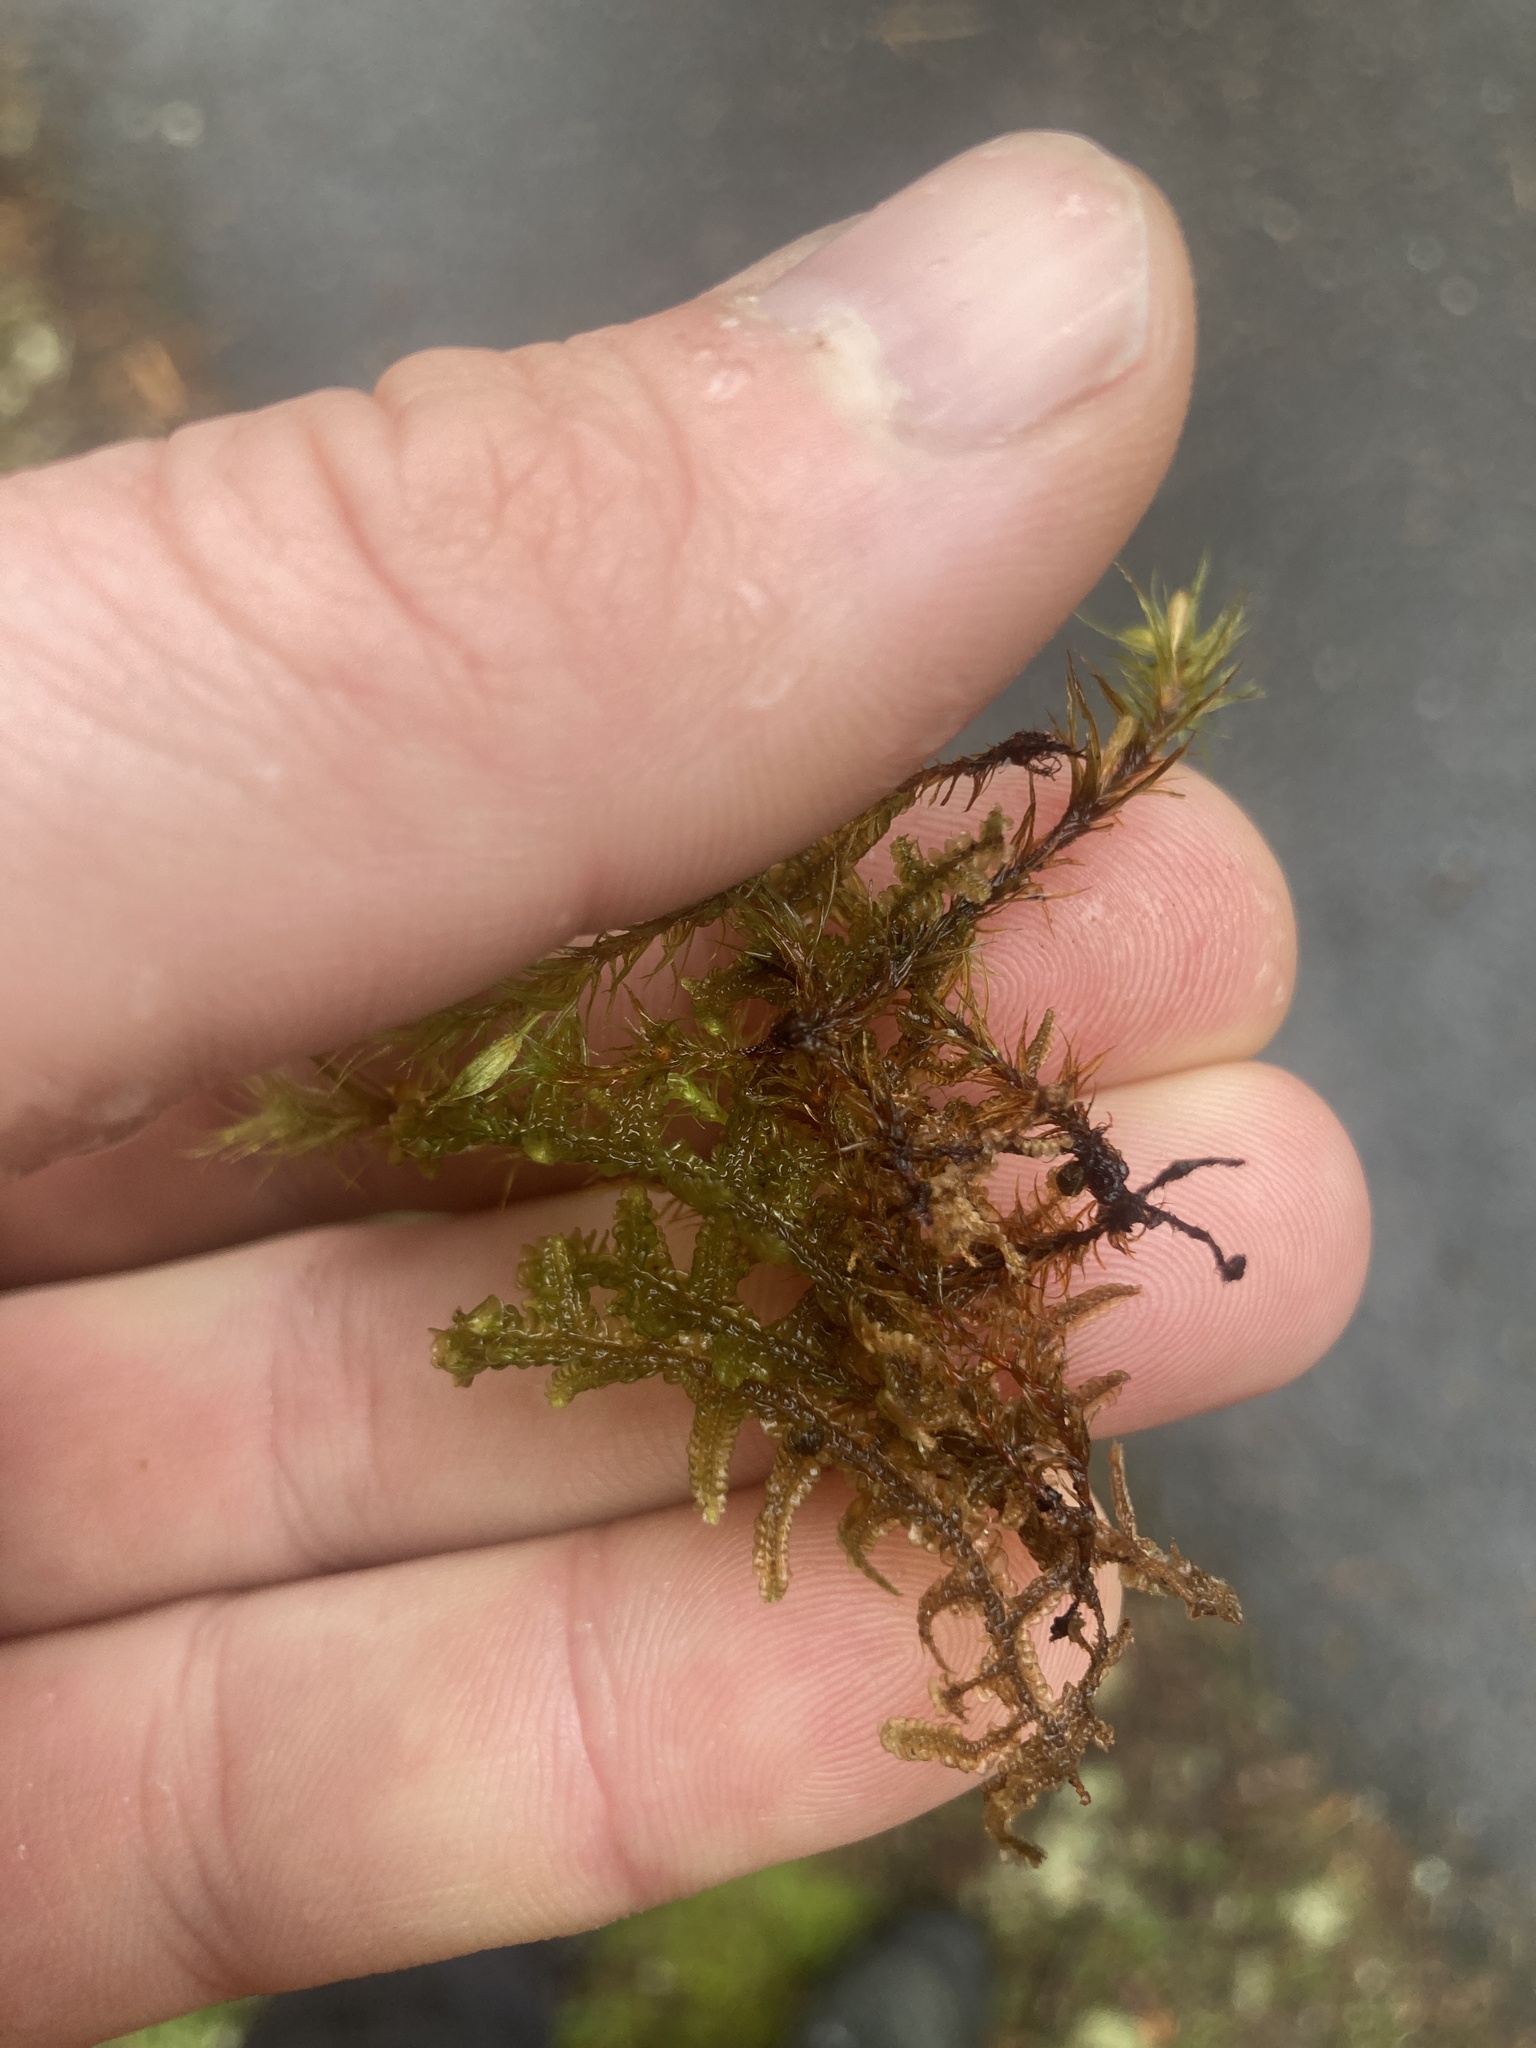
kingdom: Plantae
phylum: Marchantiophyta
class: Jungermanniopsida
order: Porellales
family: Porellaceae
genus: Porella
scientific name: Porella navicularis
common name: Tree ruffle liverwort
